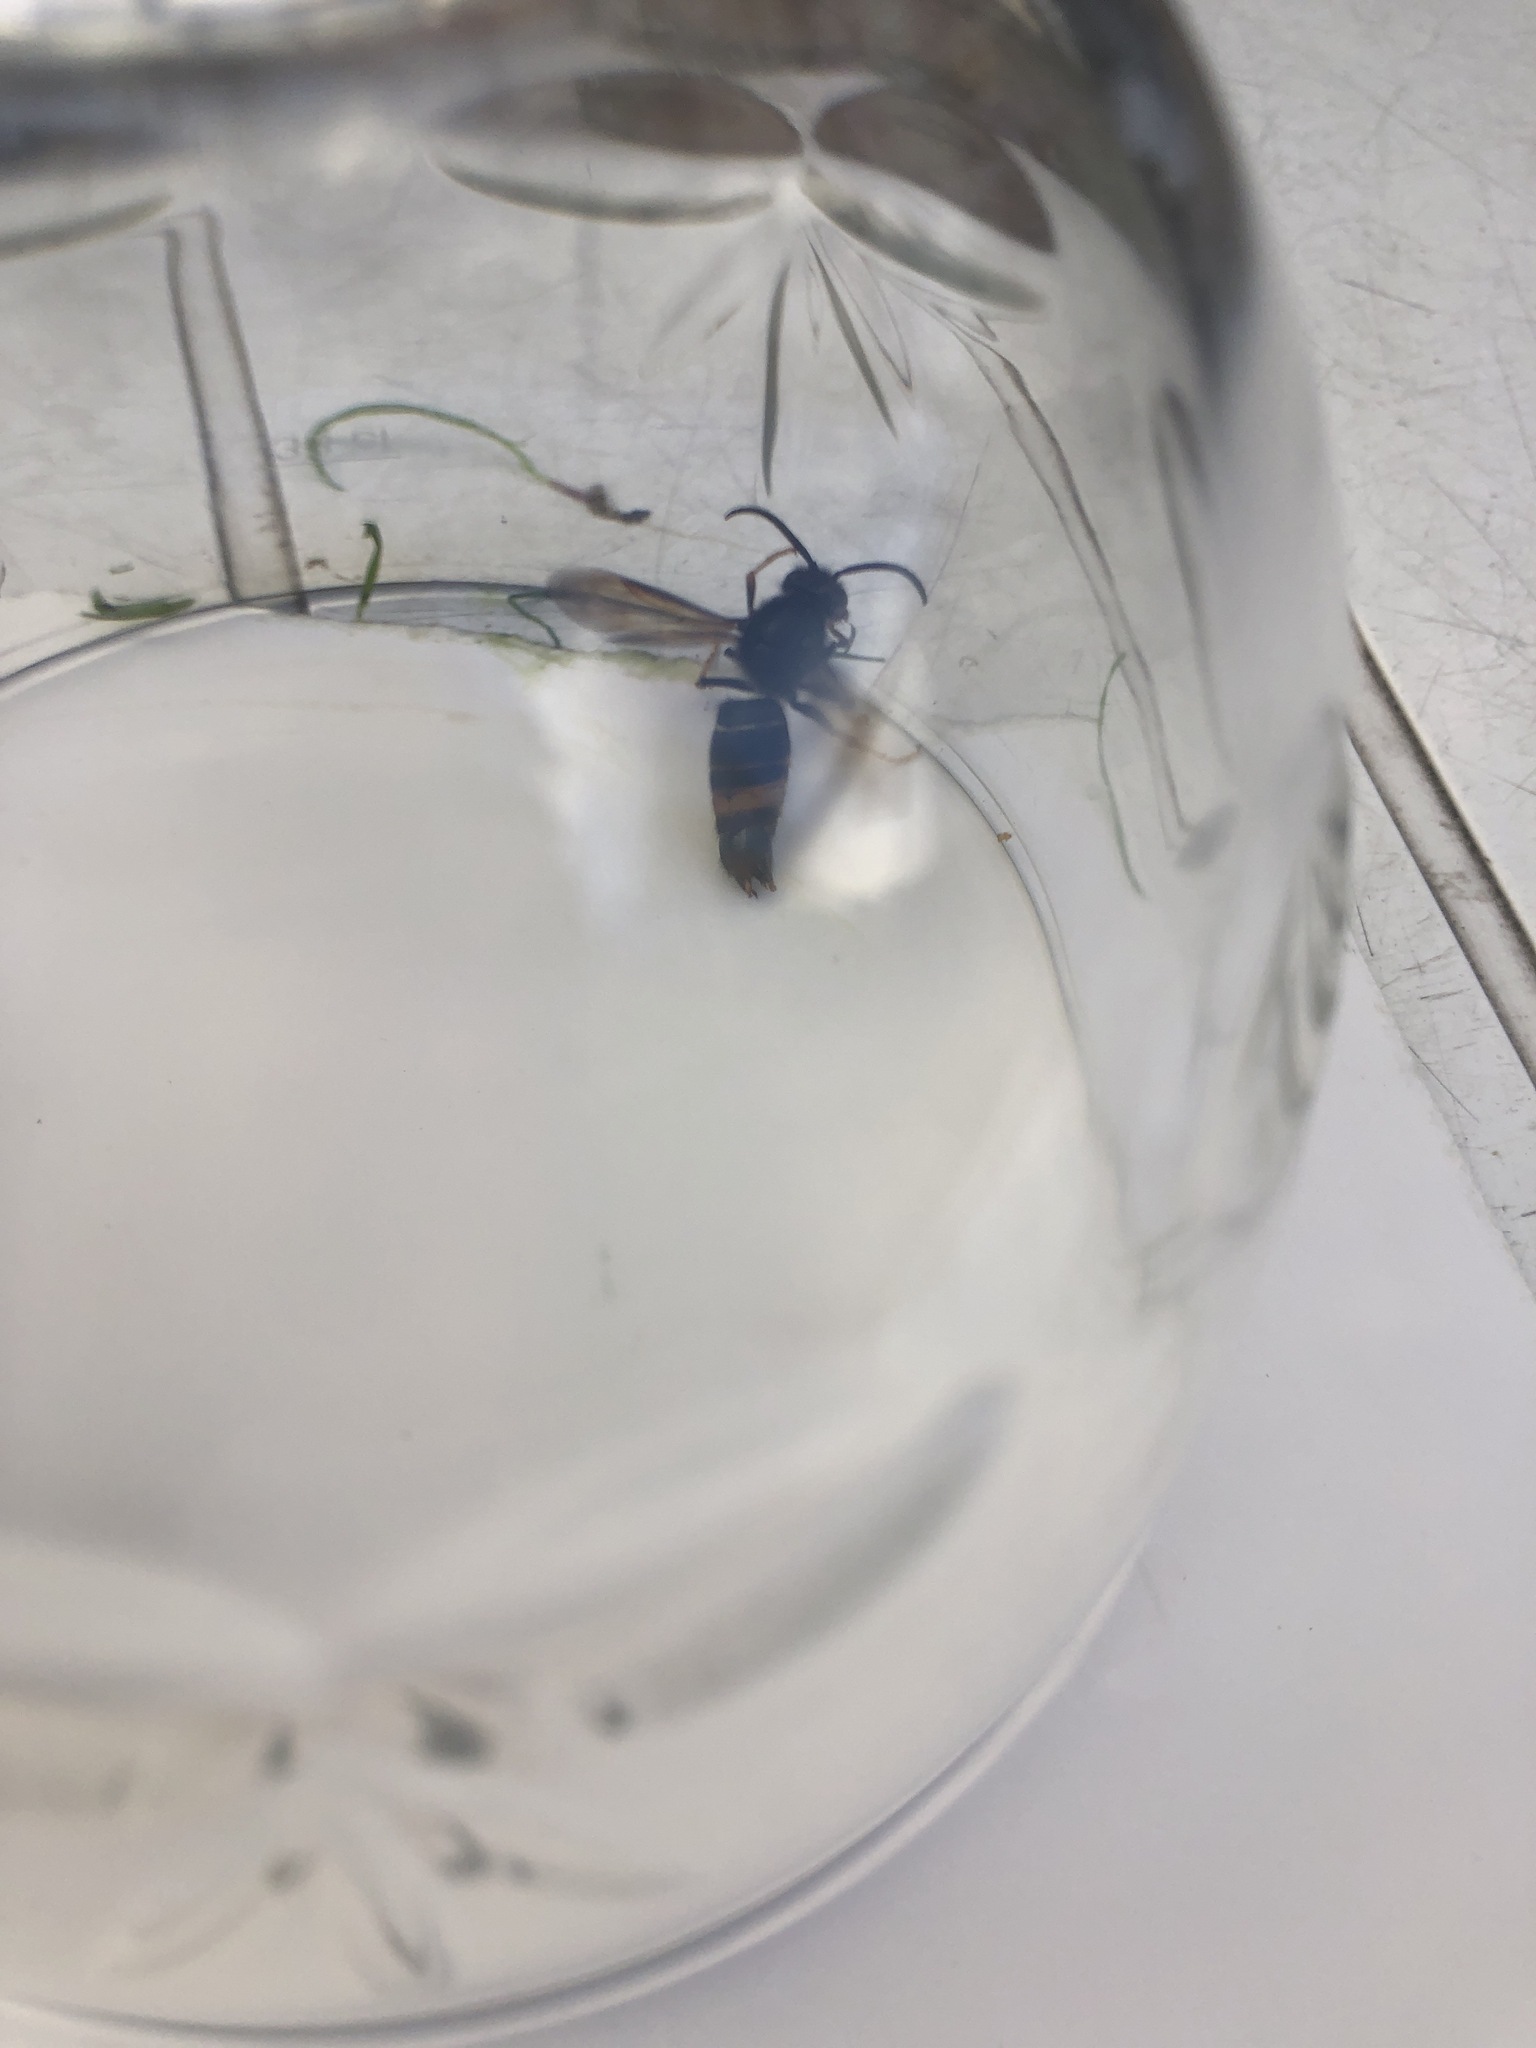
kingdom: Animalia
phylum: Arthropoda
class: Insecta
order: Hymenoptera
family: Vespidae
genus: Vespa
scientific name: Vespa velutina
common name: Asian hornet
